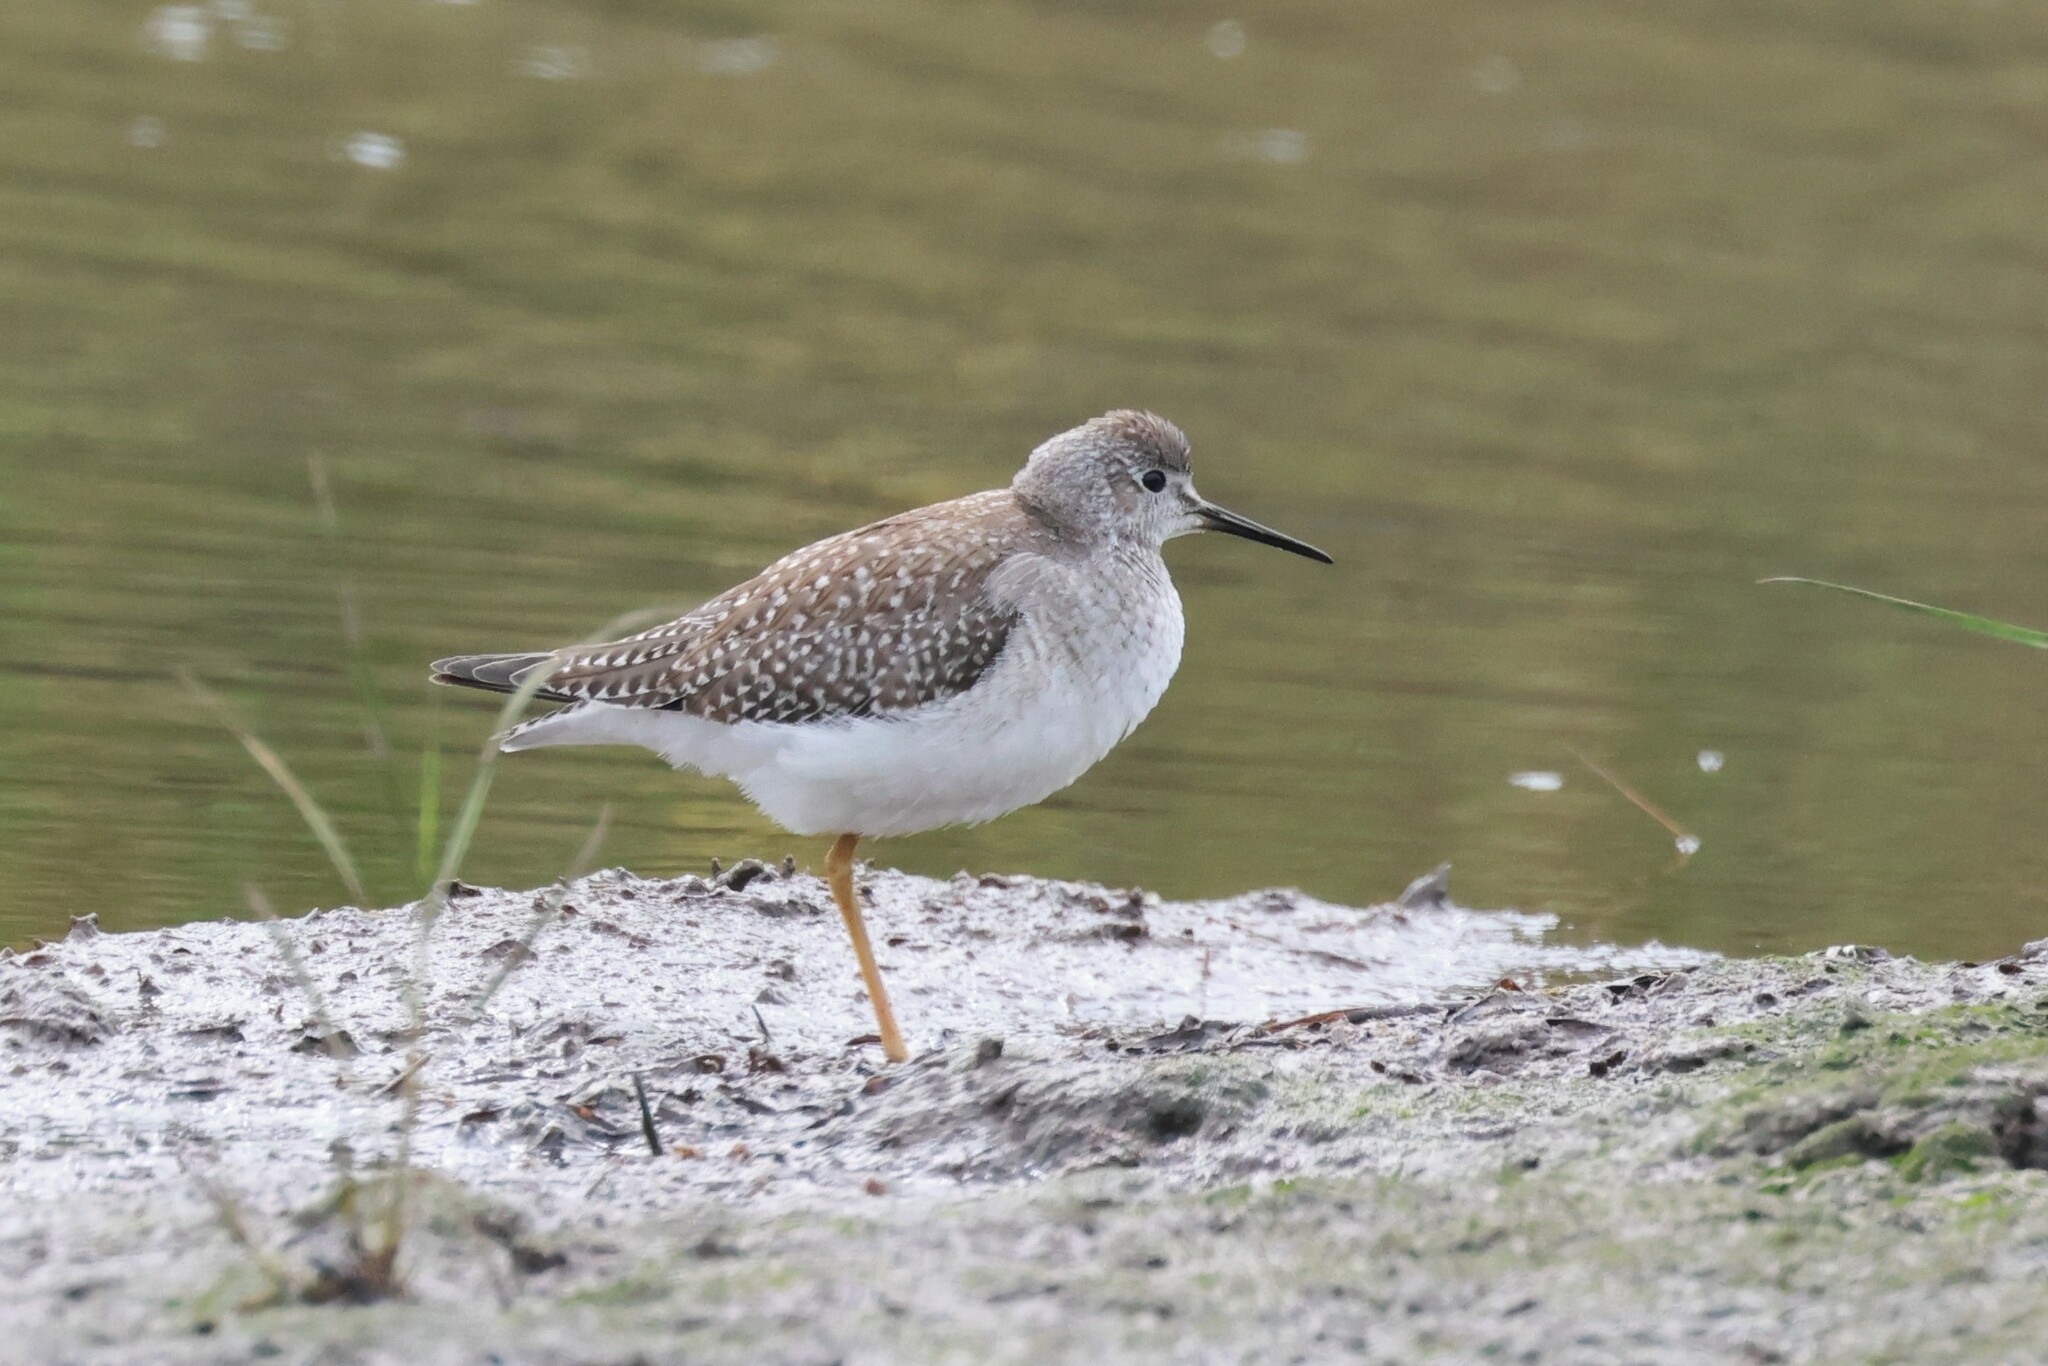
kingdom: Animalia
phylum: Chordata
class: Aves
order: Charadriiformes
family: Scolopacidae
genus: Tringa
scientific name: Tringa flavipes
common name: Lesser yellowlegs
